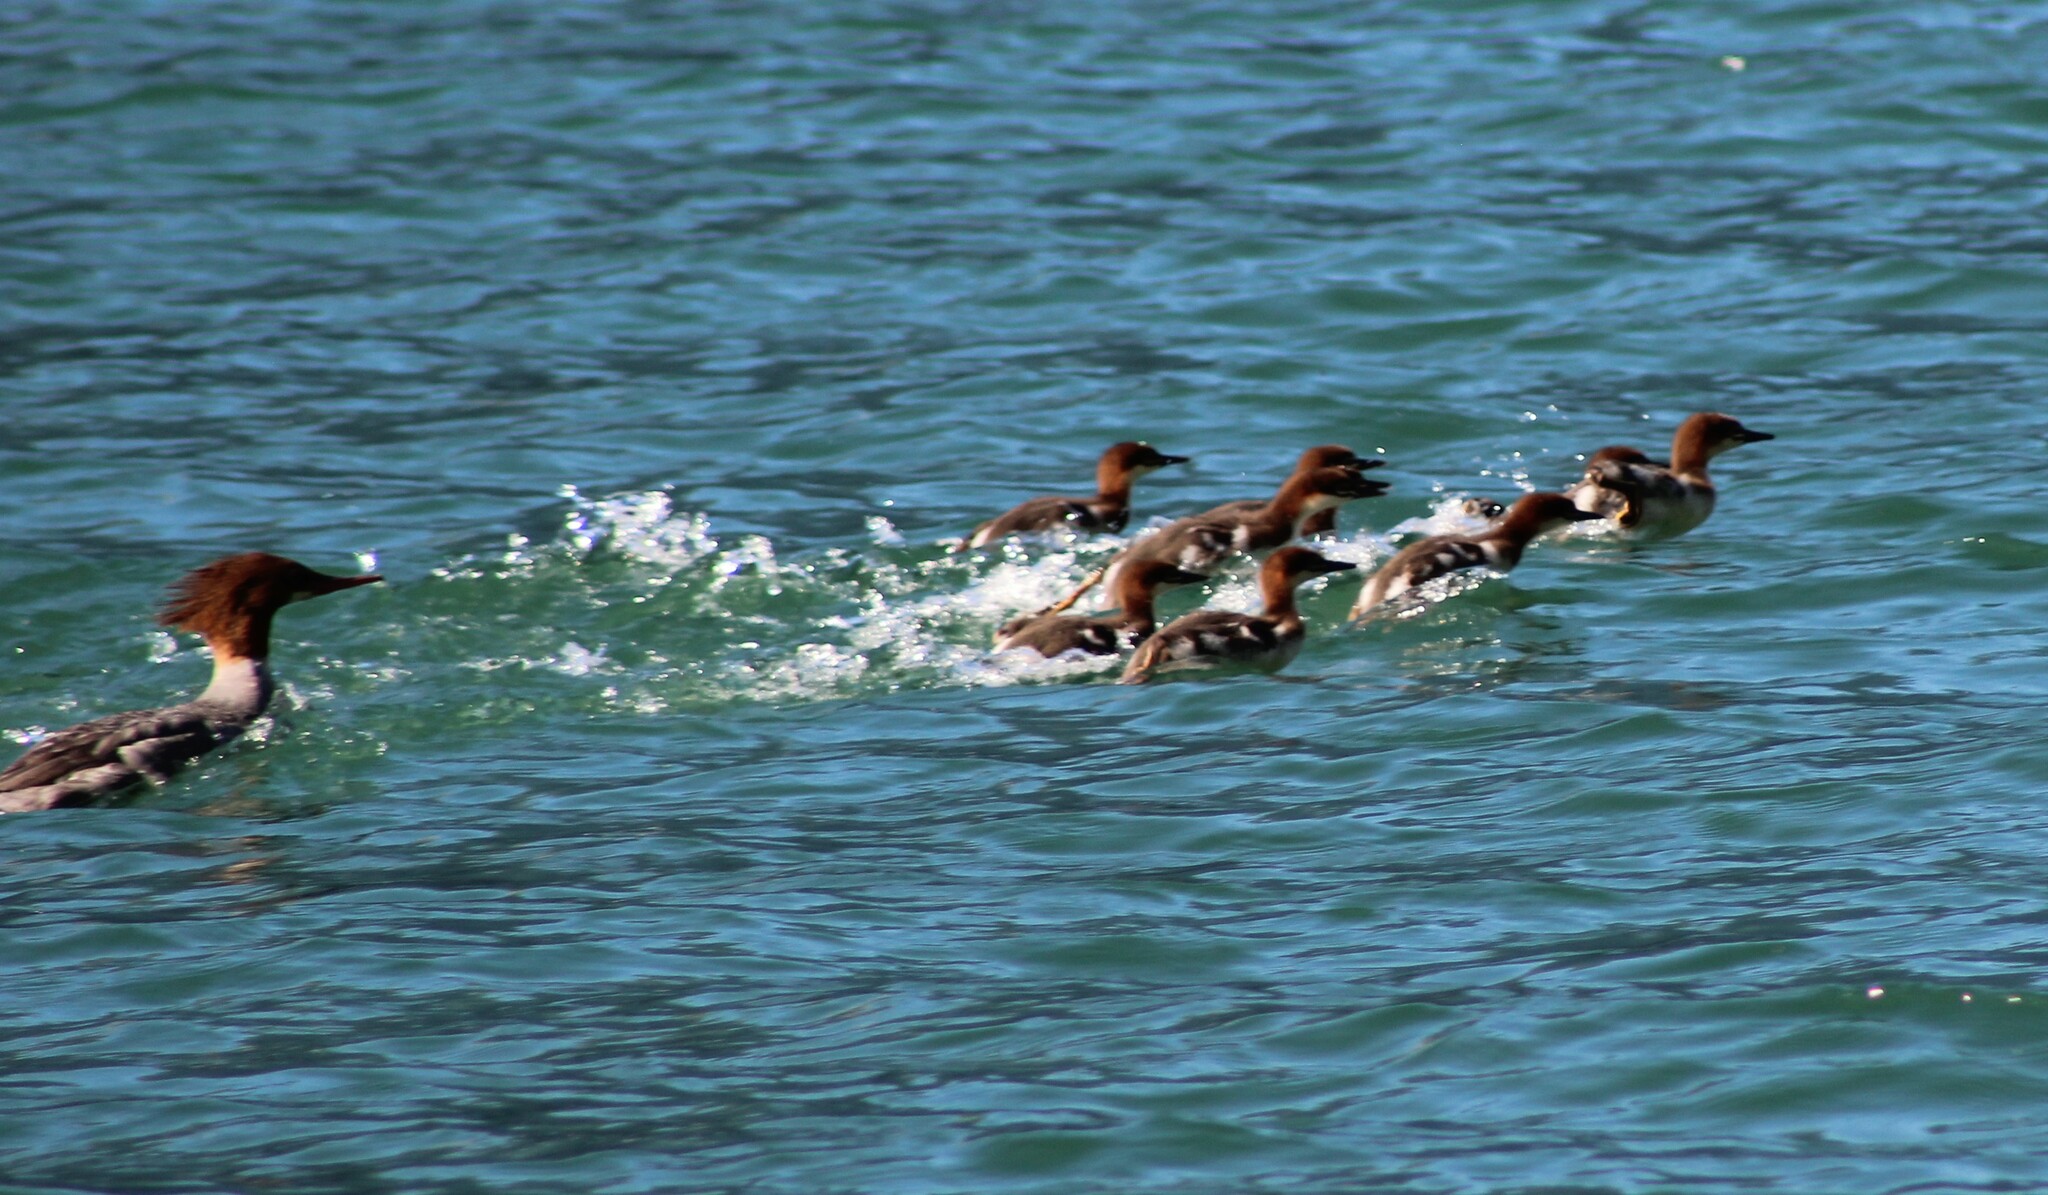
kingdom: Animalia
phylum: Chordata
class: Aves
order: Anseriformes
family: Anatidae
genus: Mergus
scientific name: Mergus merganser
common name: Common merganser
